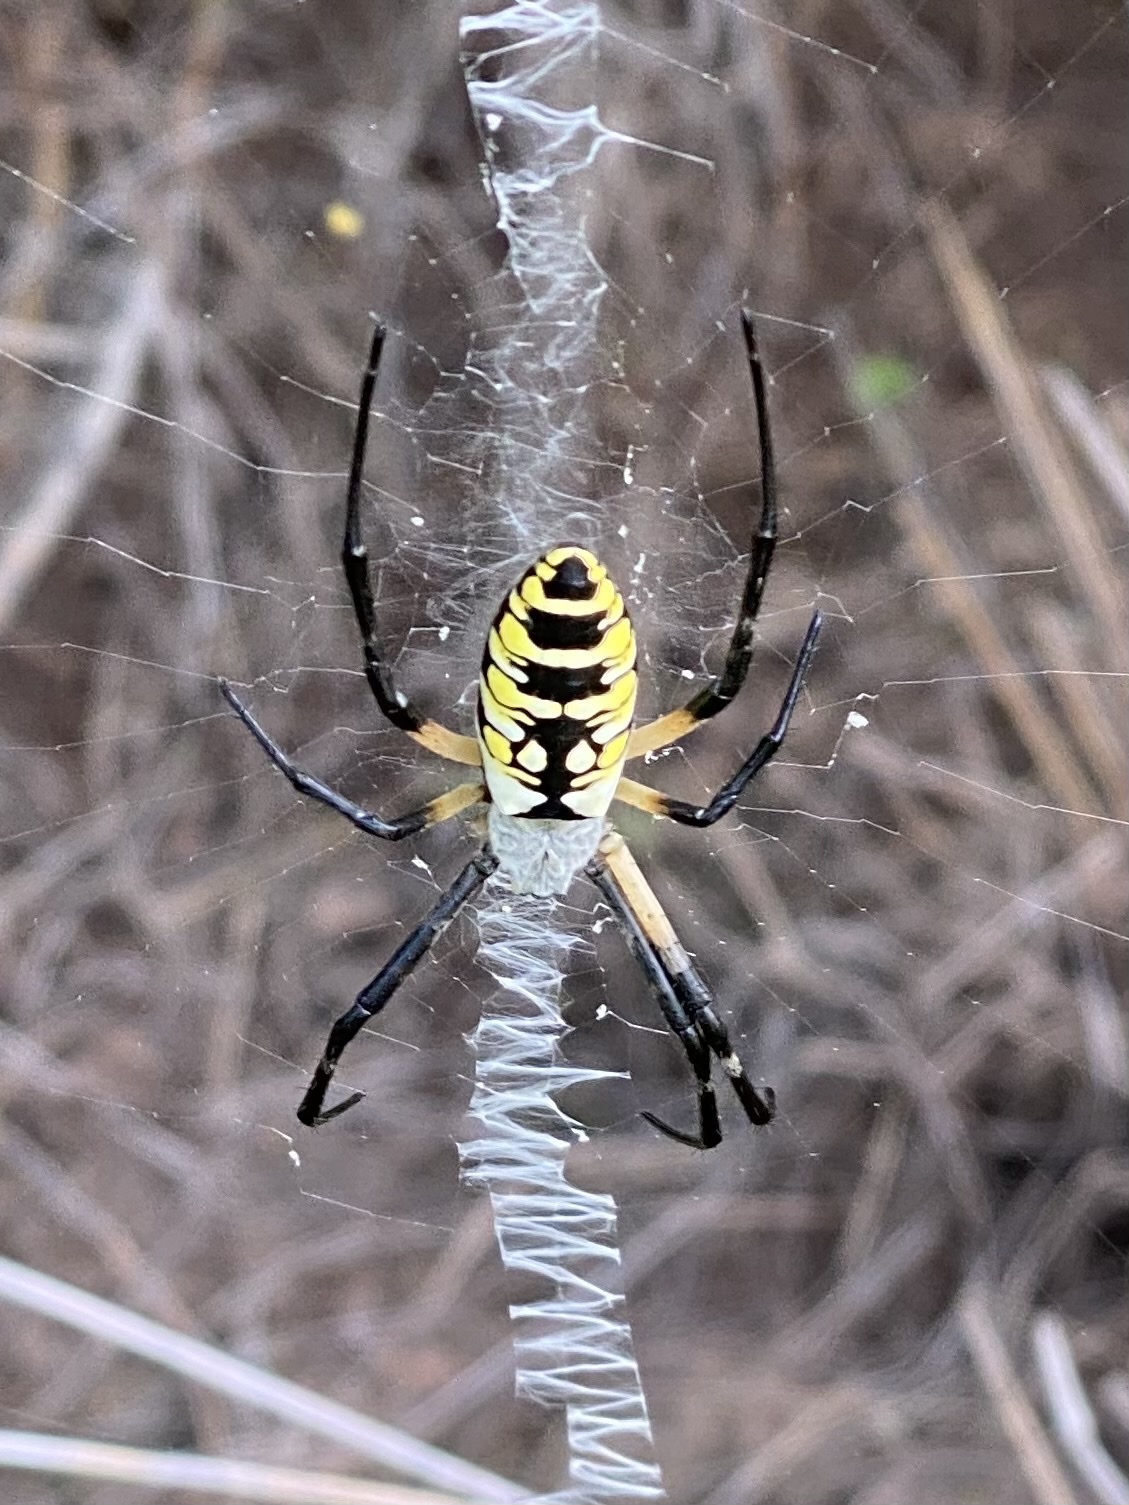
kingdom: Animalia
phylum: Arthropoda
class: Arachnida
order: Araneae
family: Araneidae
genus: Argiope
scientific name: Argiope aurantia
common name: Orb weavers
